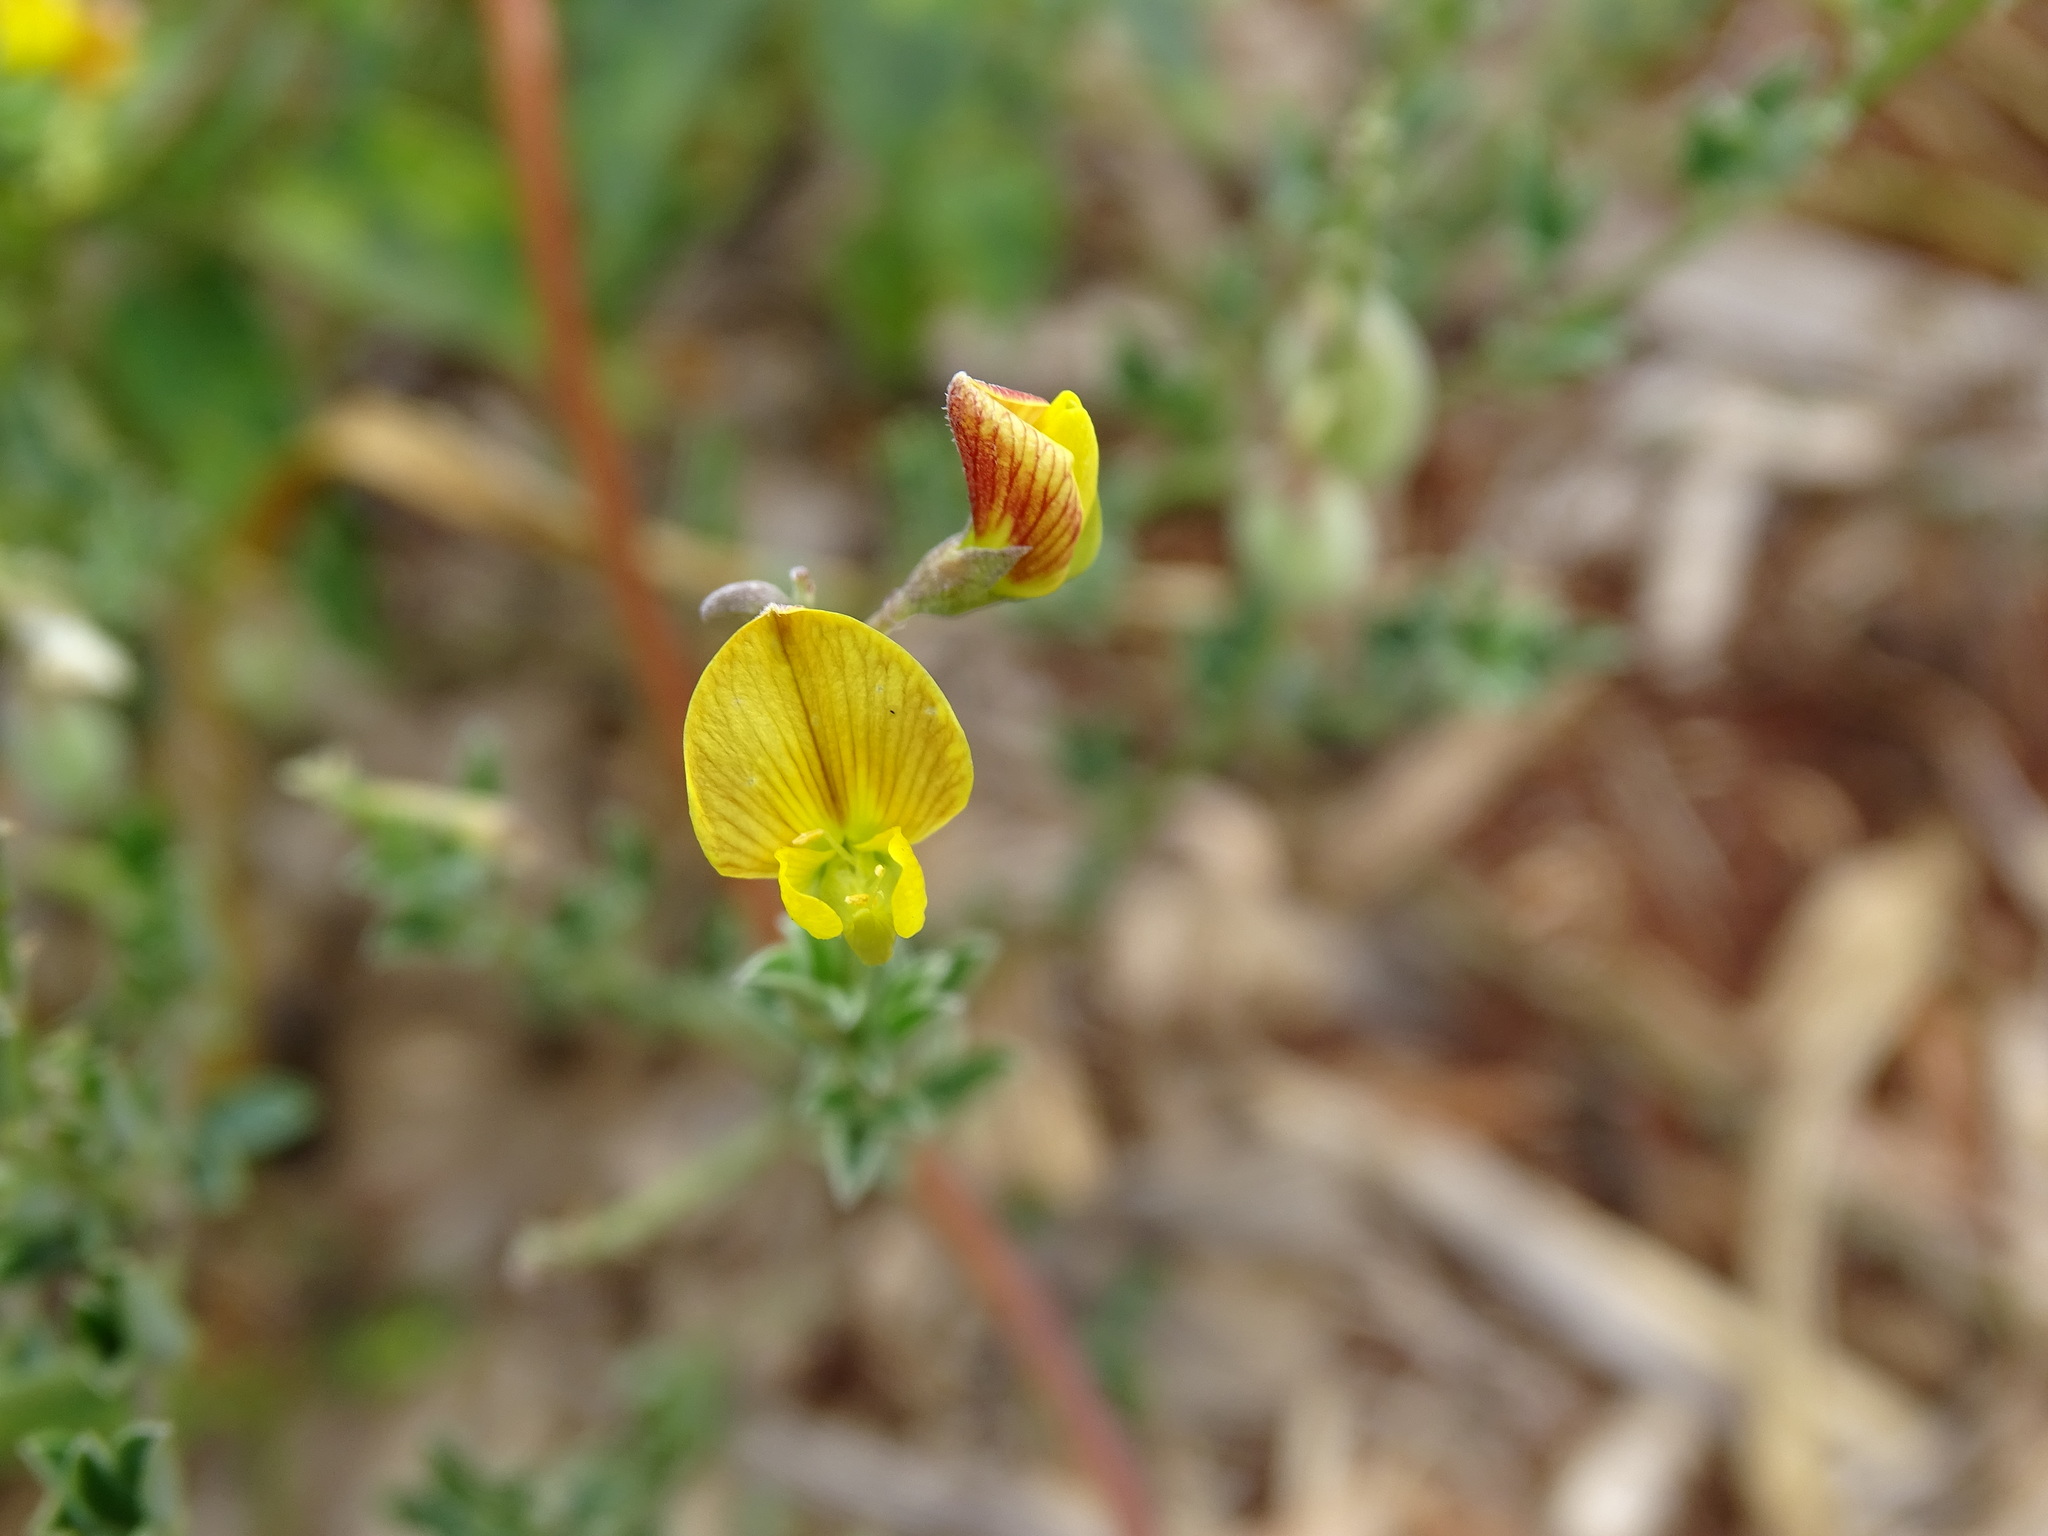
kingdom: Plantae
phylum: Tracheophyta
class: Magnoliopsida
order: Fabales
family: Fabaceae
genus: Crotalaria
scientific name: Crotalaria pumila
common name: Low rattlebox
